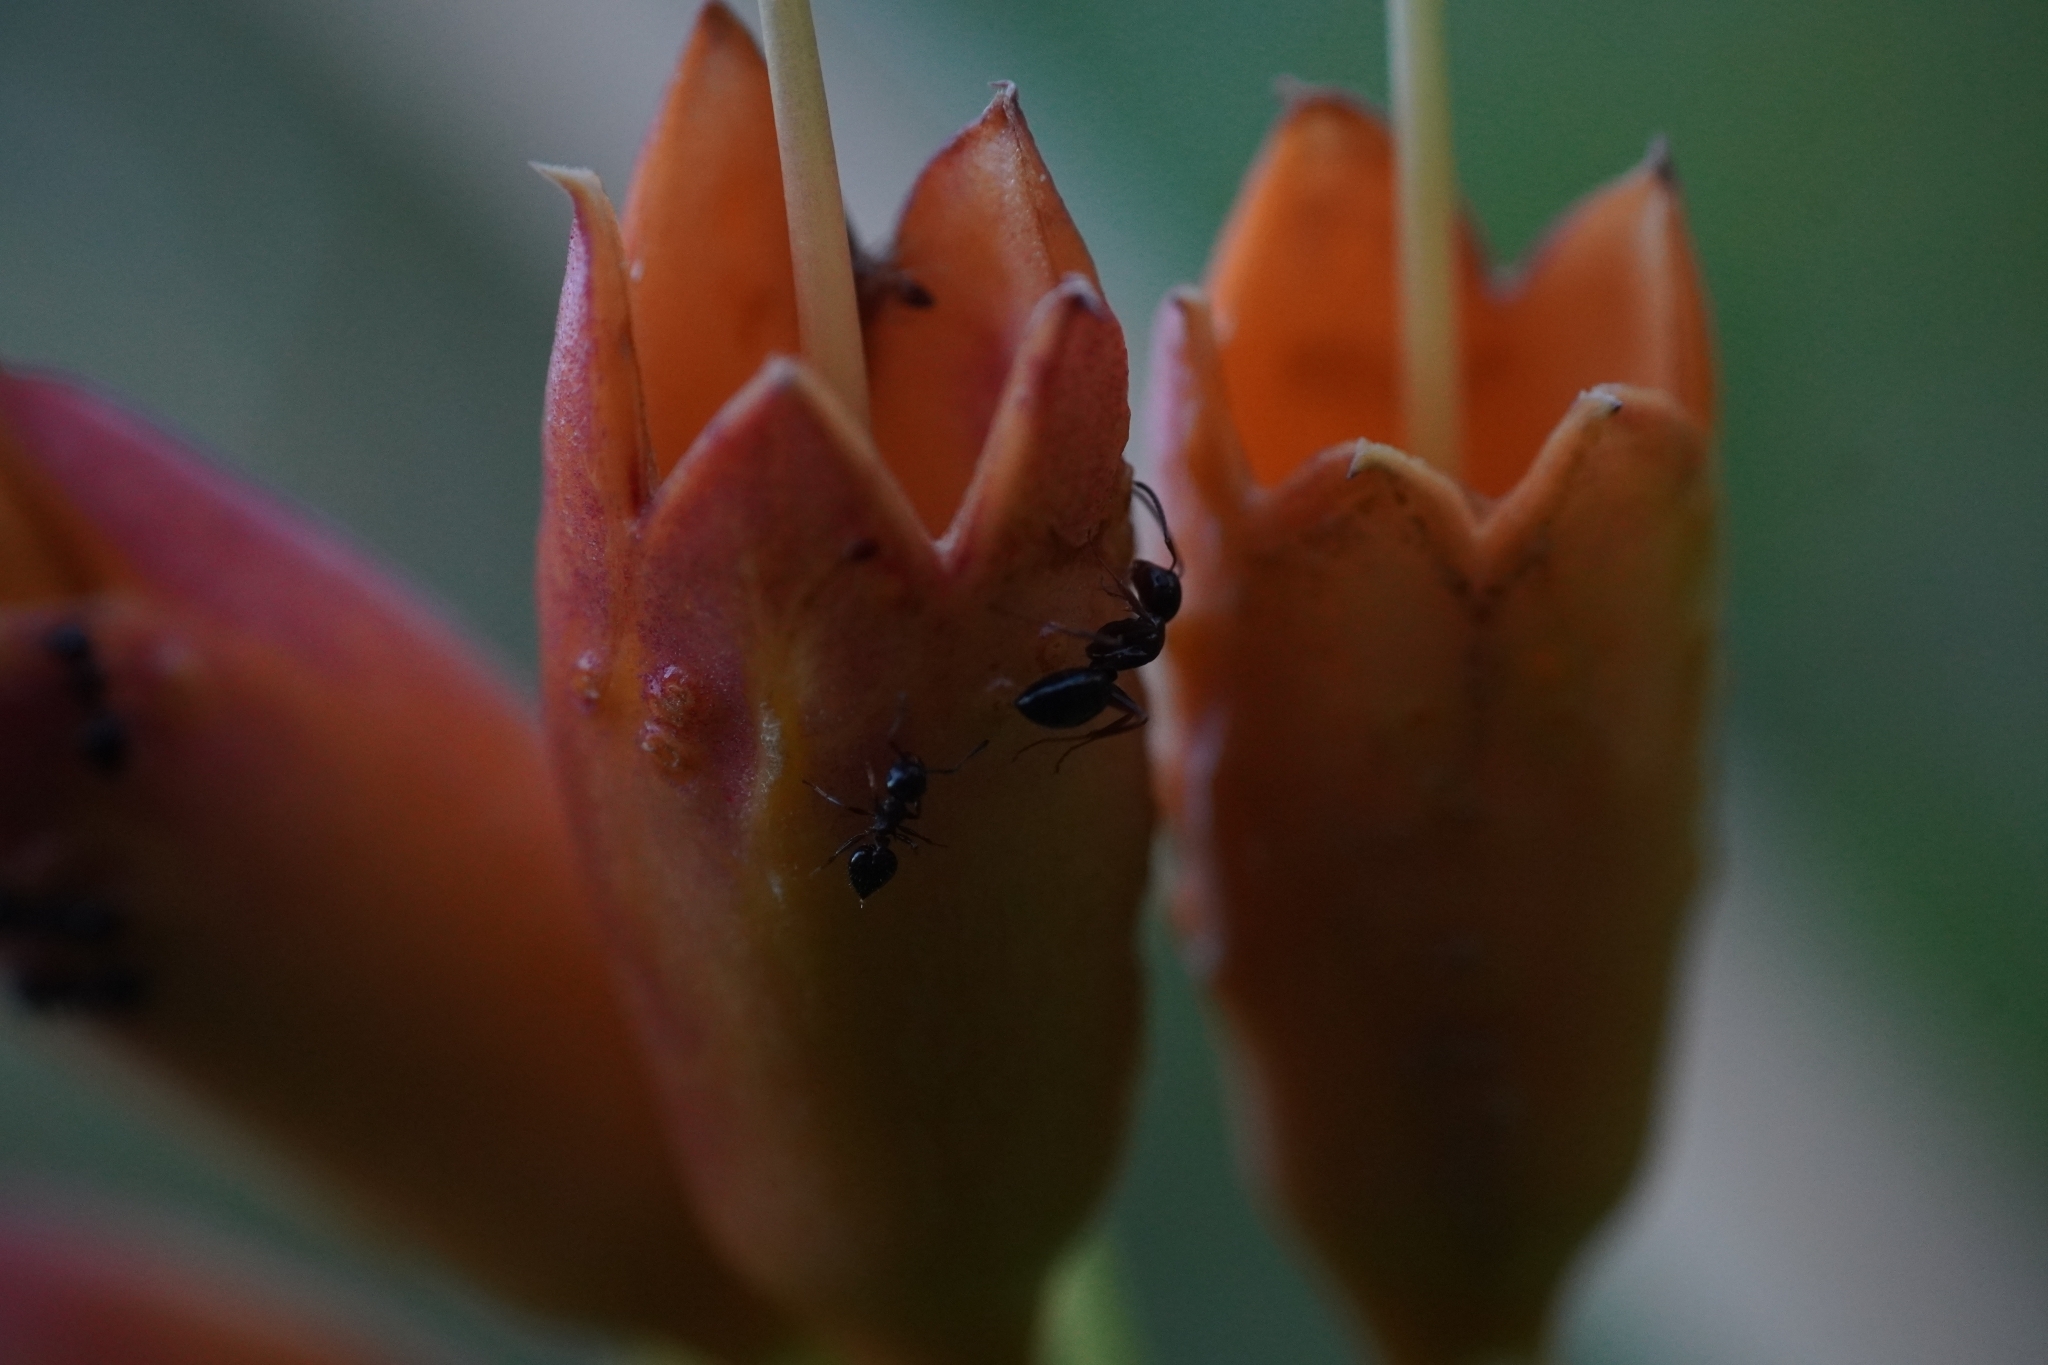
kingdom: Animalia
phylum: Arthropoda
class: Insecta
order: Hymenoptera
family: Formicidae
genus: Camponotus
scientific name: Camponotus nearcticus
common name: Smaller carpenter ant
